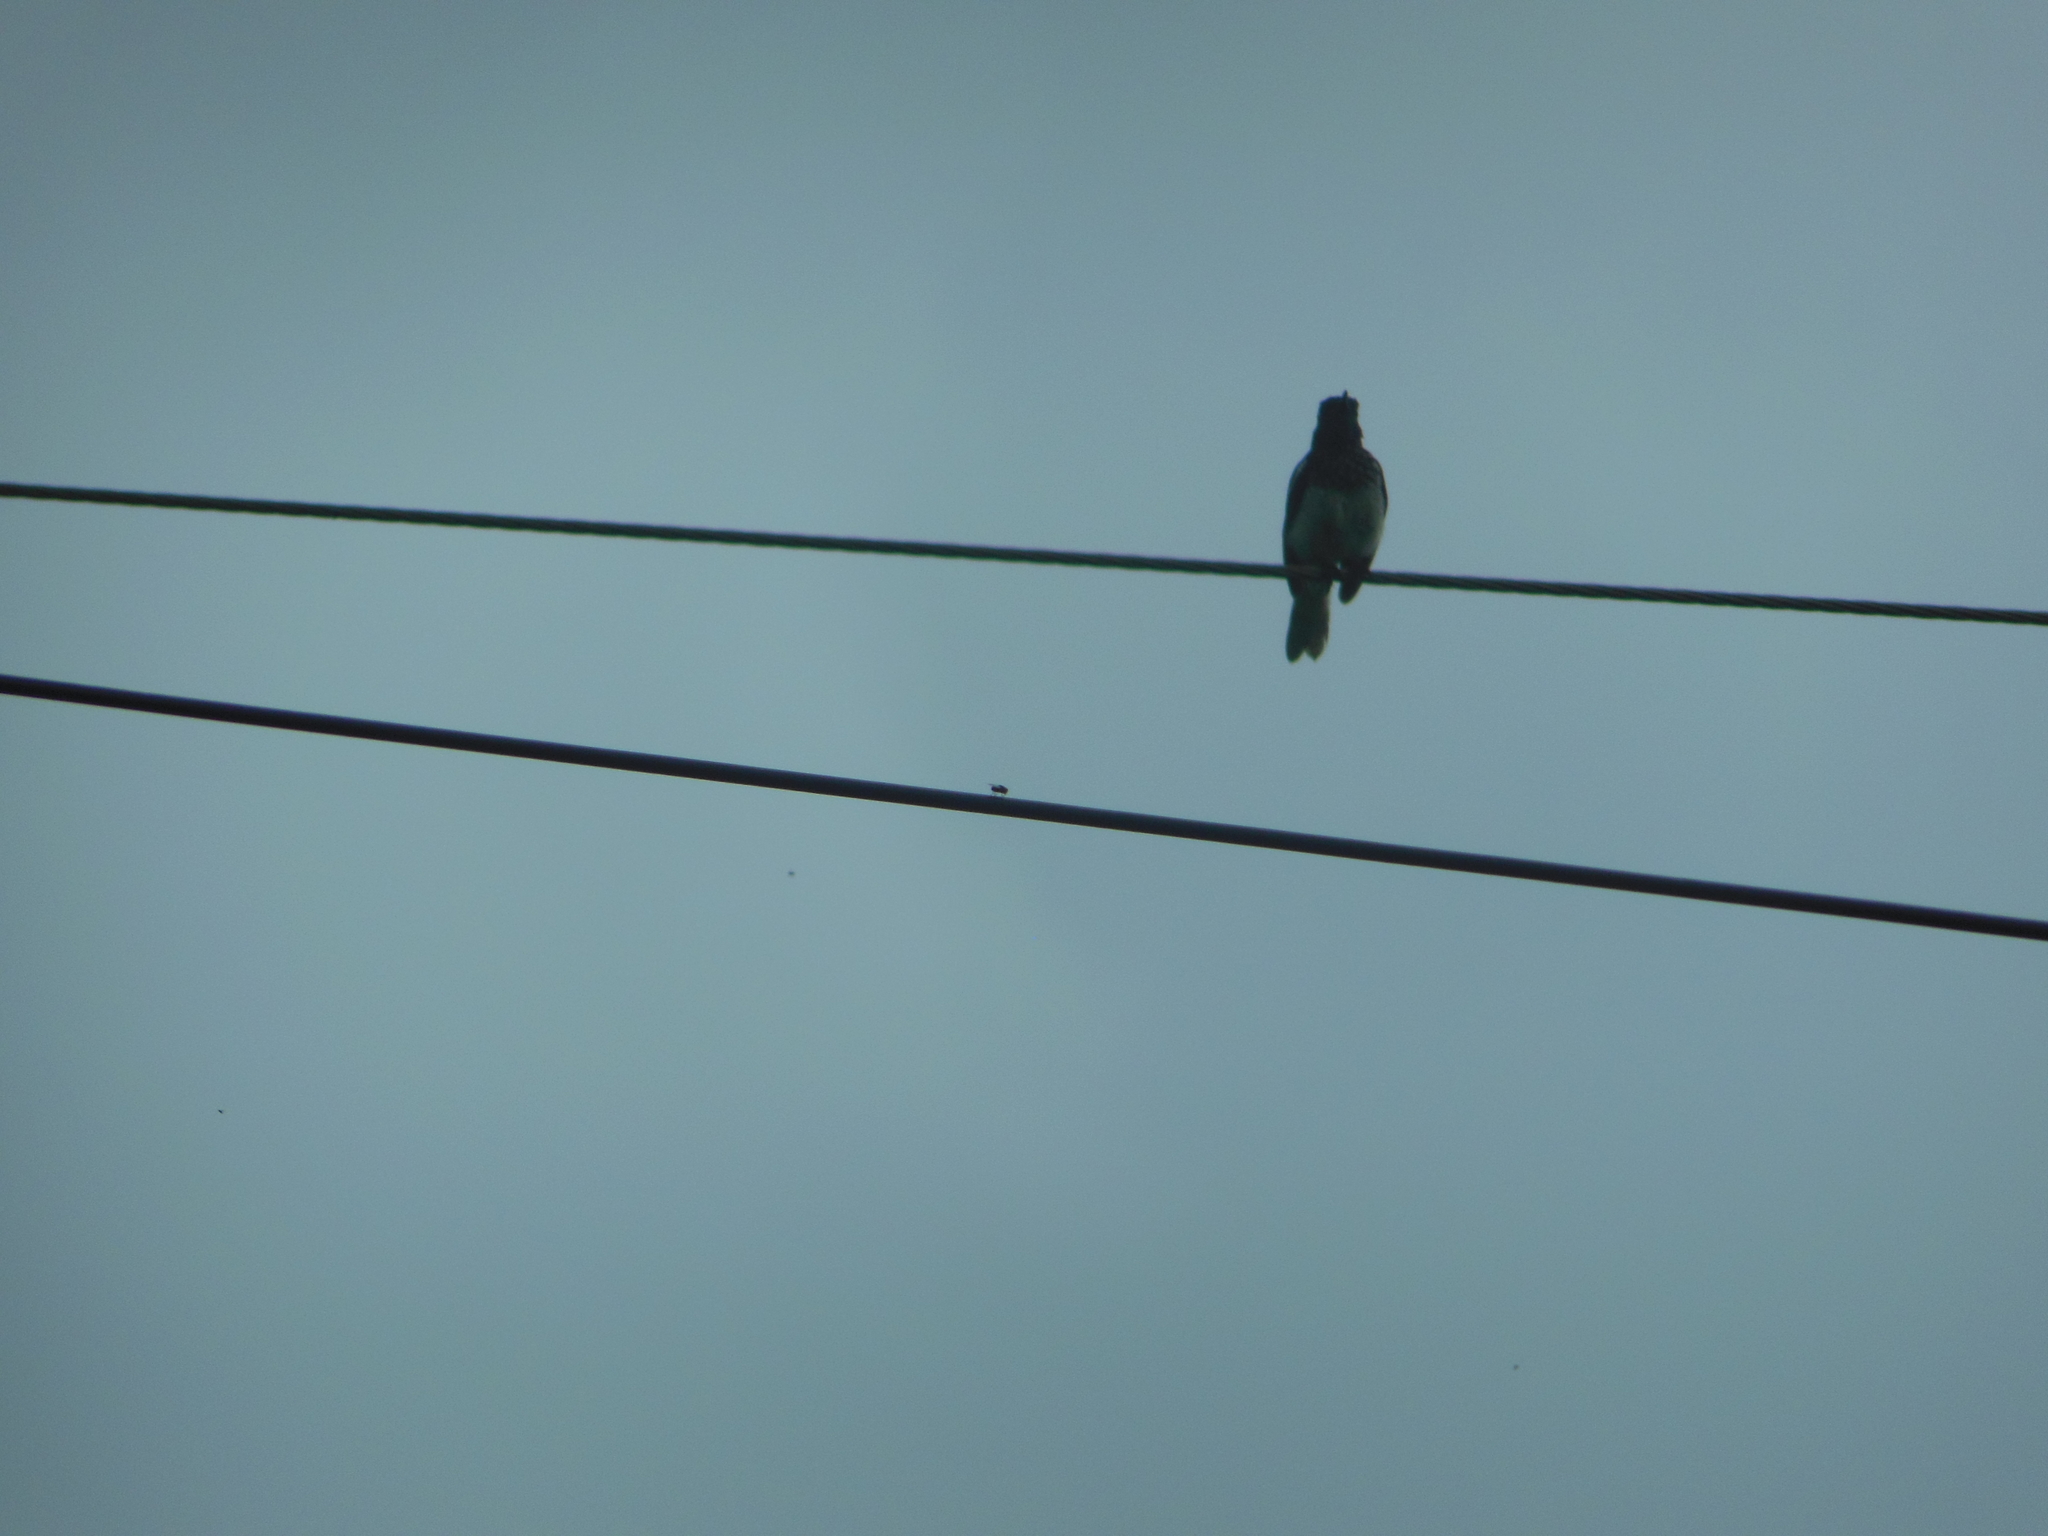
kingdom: Animalia
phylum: Chordata
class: Aves
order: Passeriformes
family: Muscicapidae
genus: Copsychus
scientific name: Copsychus saularis
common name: Oriental magpie-robin
